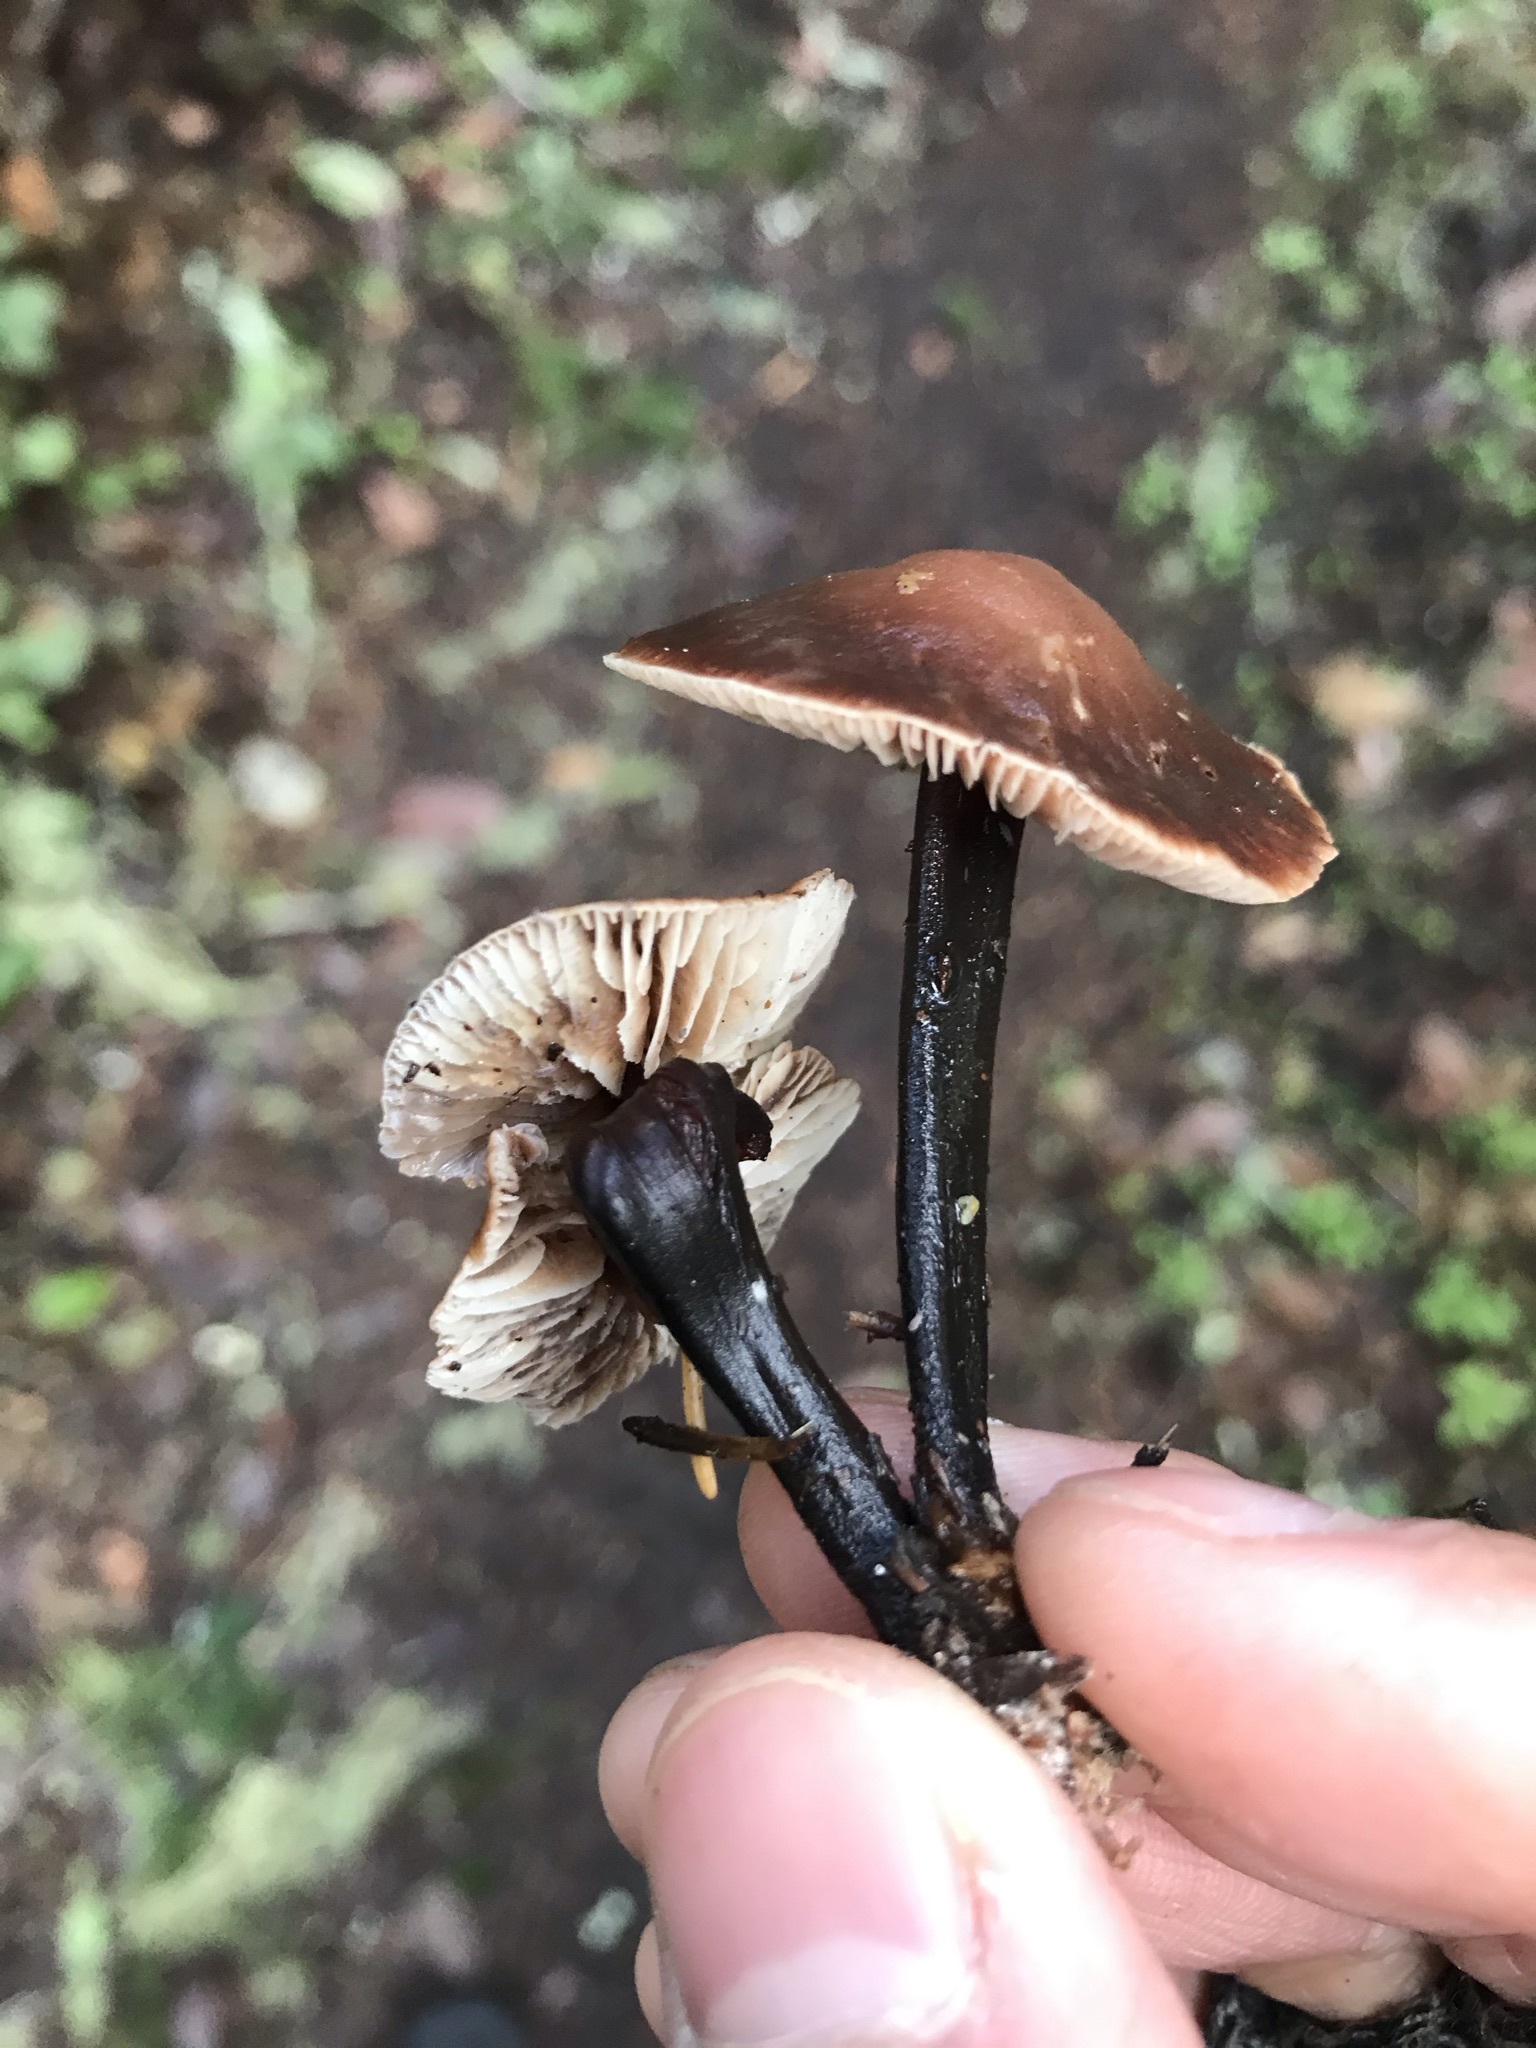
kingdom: Fungi
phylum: Basidiomycota
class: Agaricomycetes
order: Agaricales
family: Omphalotaceae
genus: Gymnopus
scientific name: Gymnopus brassicolens
